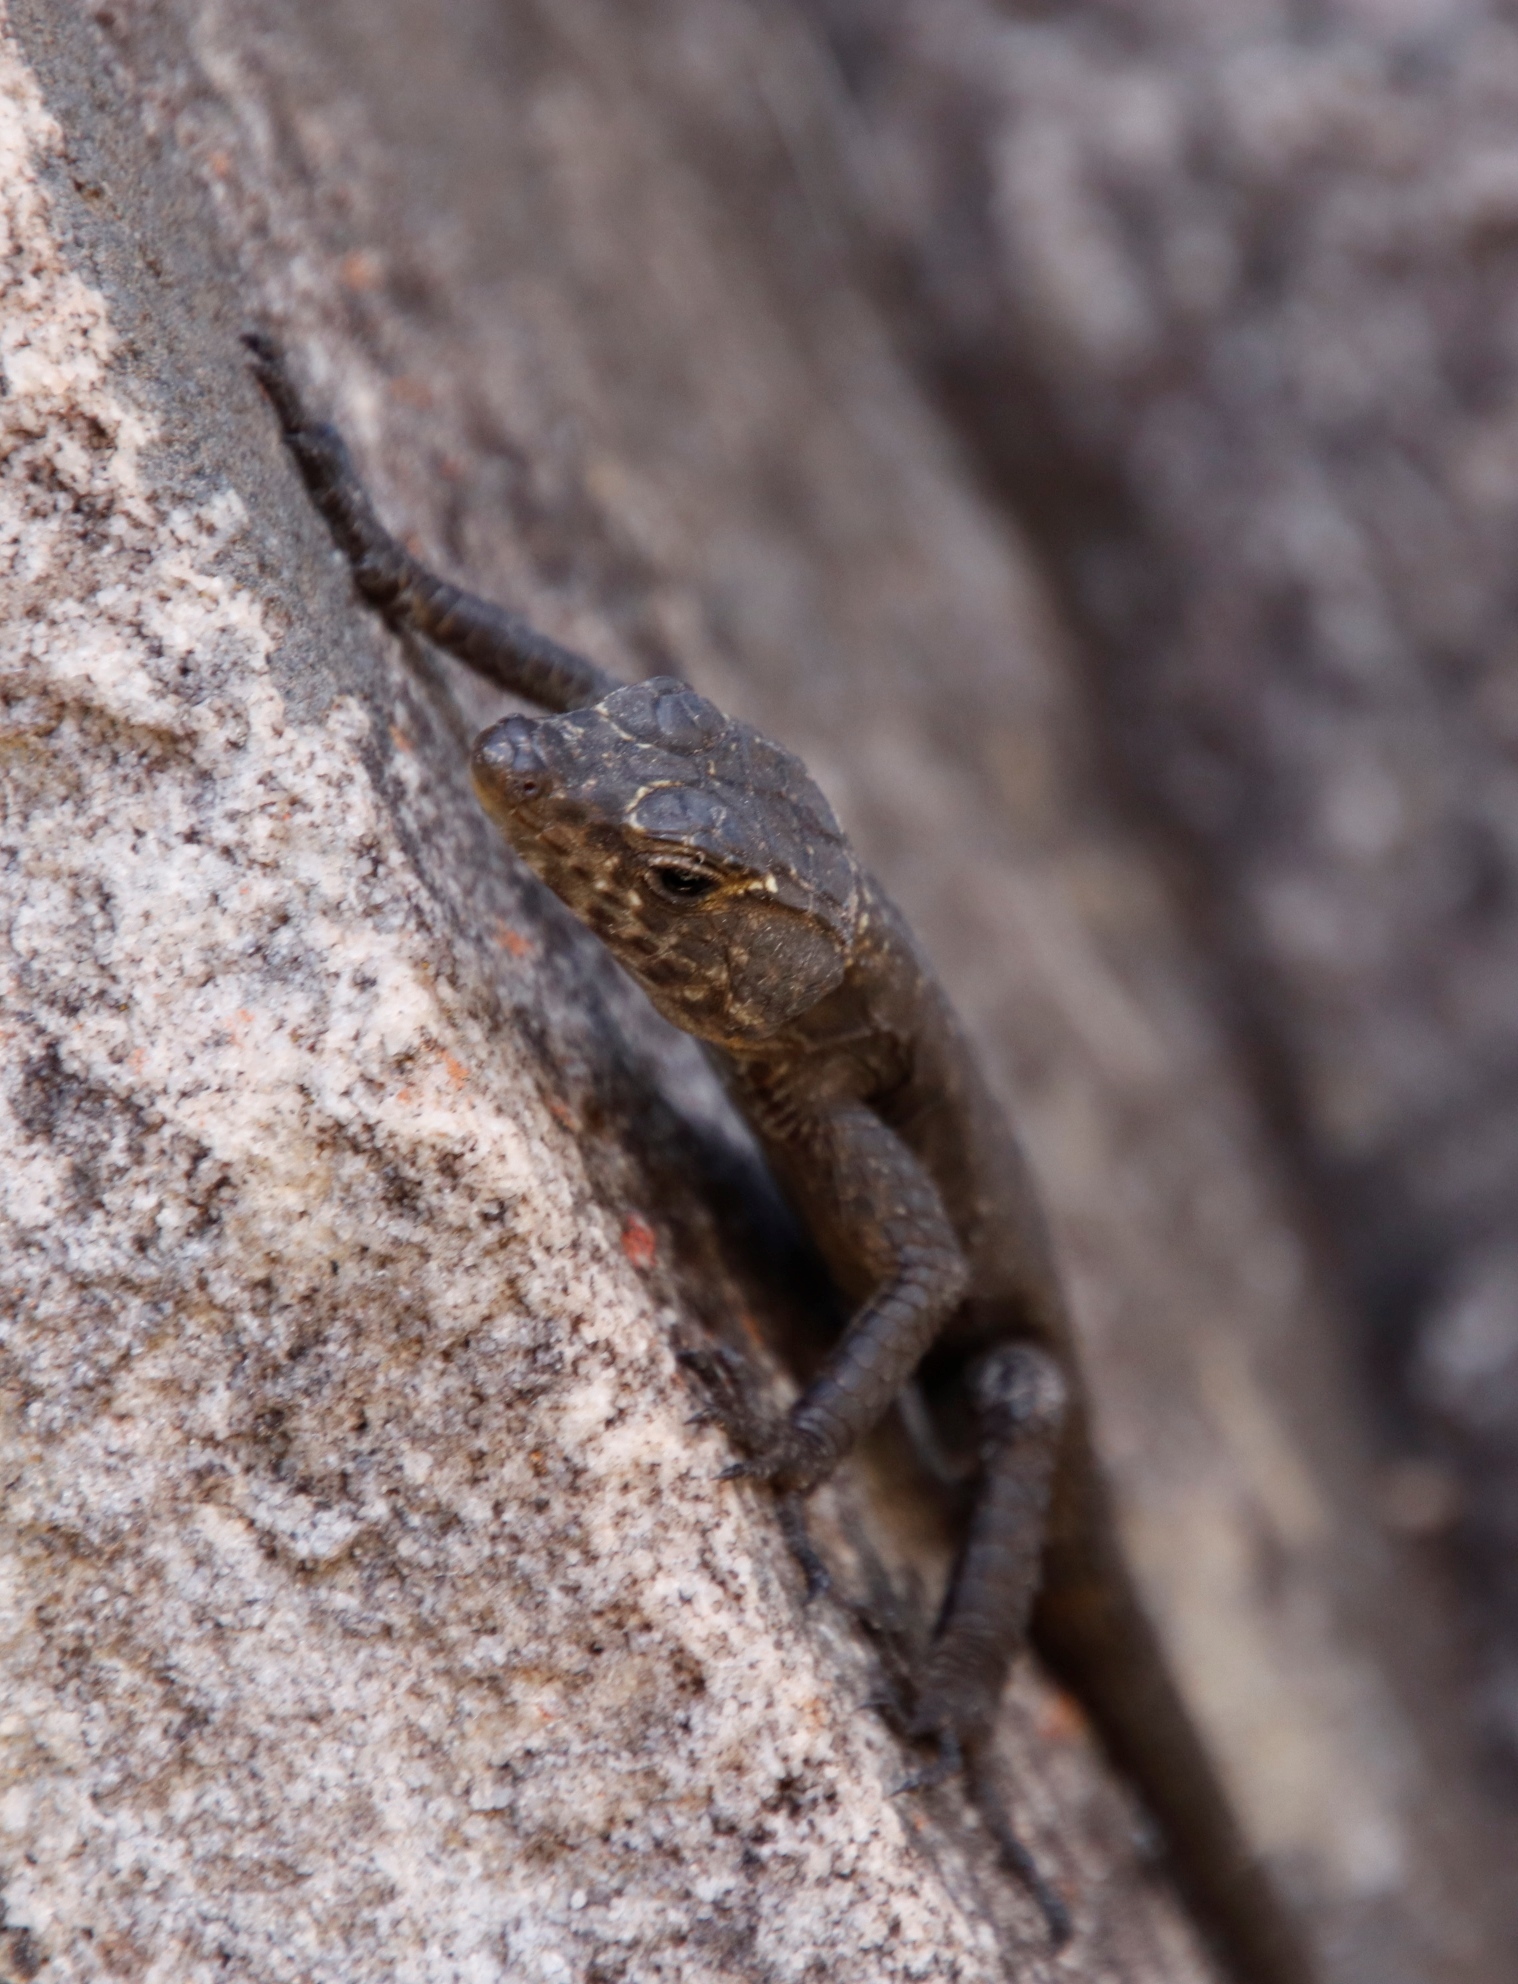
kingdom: Animalia
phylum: Chordata
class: Squamata
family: Cordylidae
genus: Hemicordylus
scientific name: Hemicordylus capensis
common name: Graceful crag lizard
